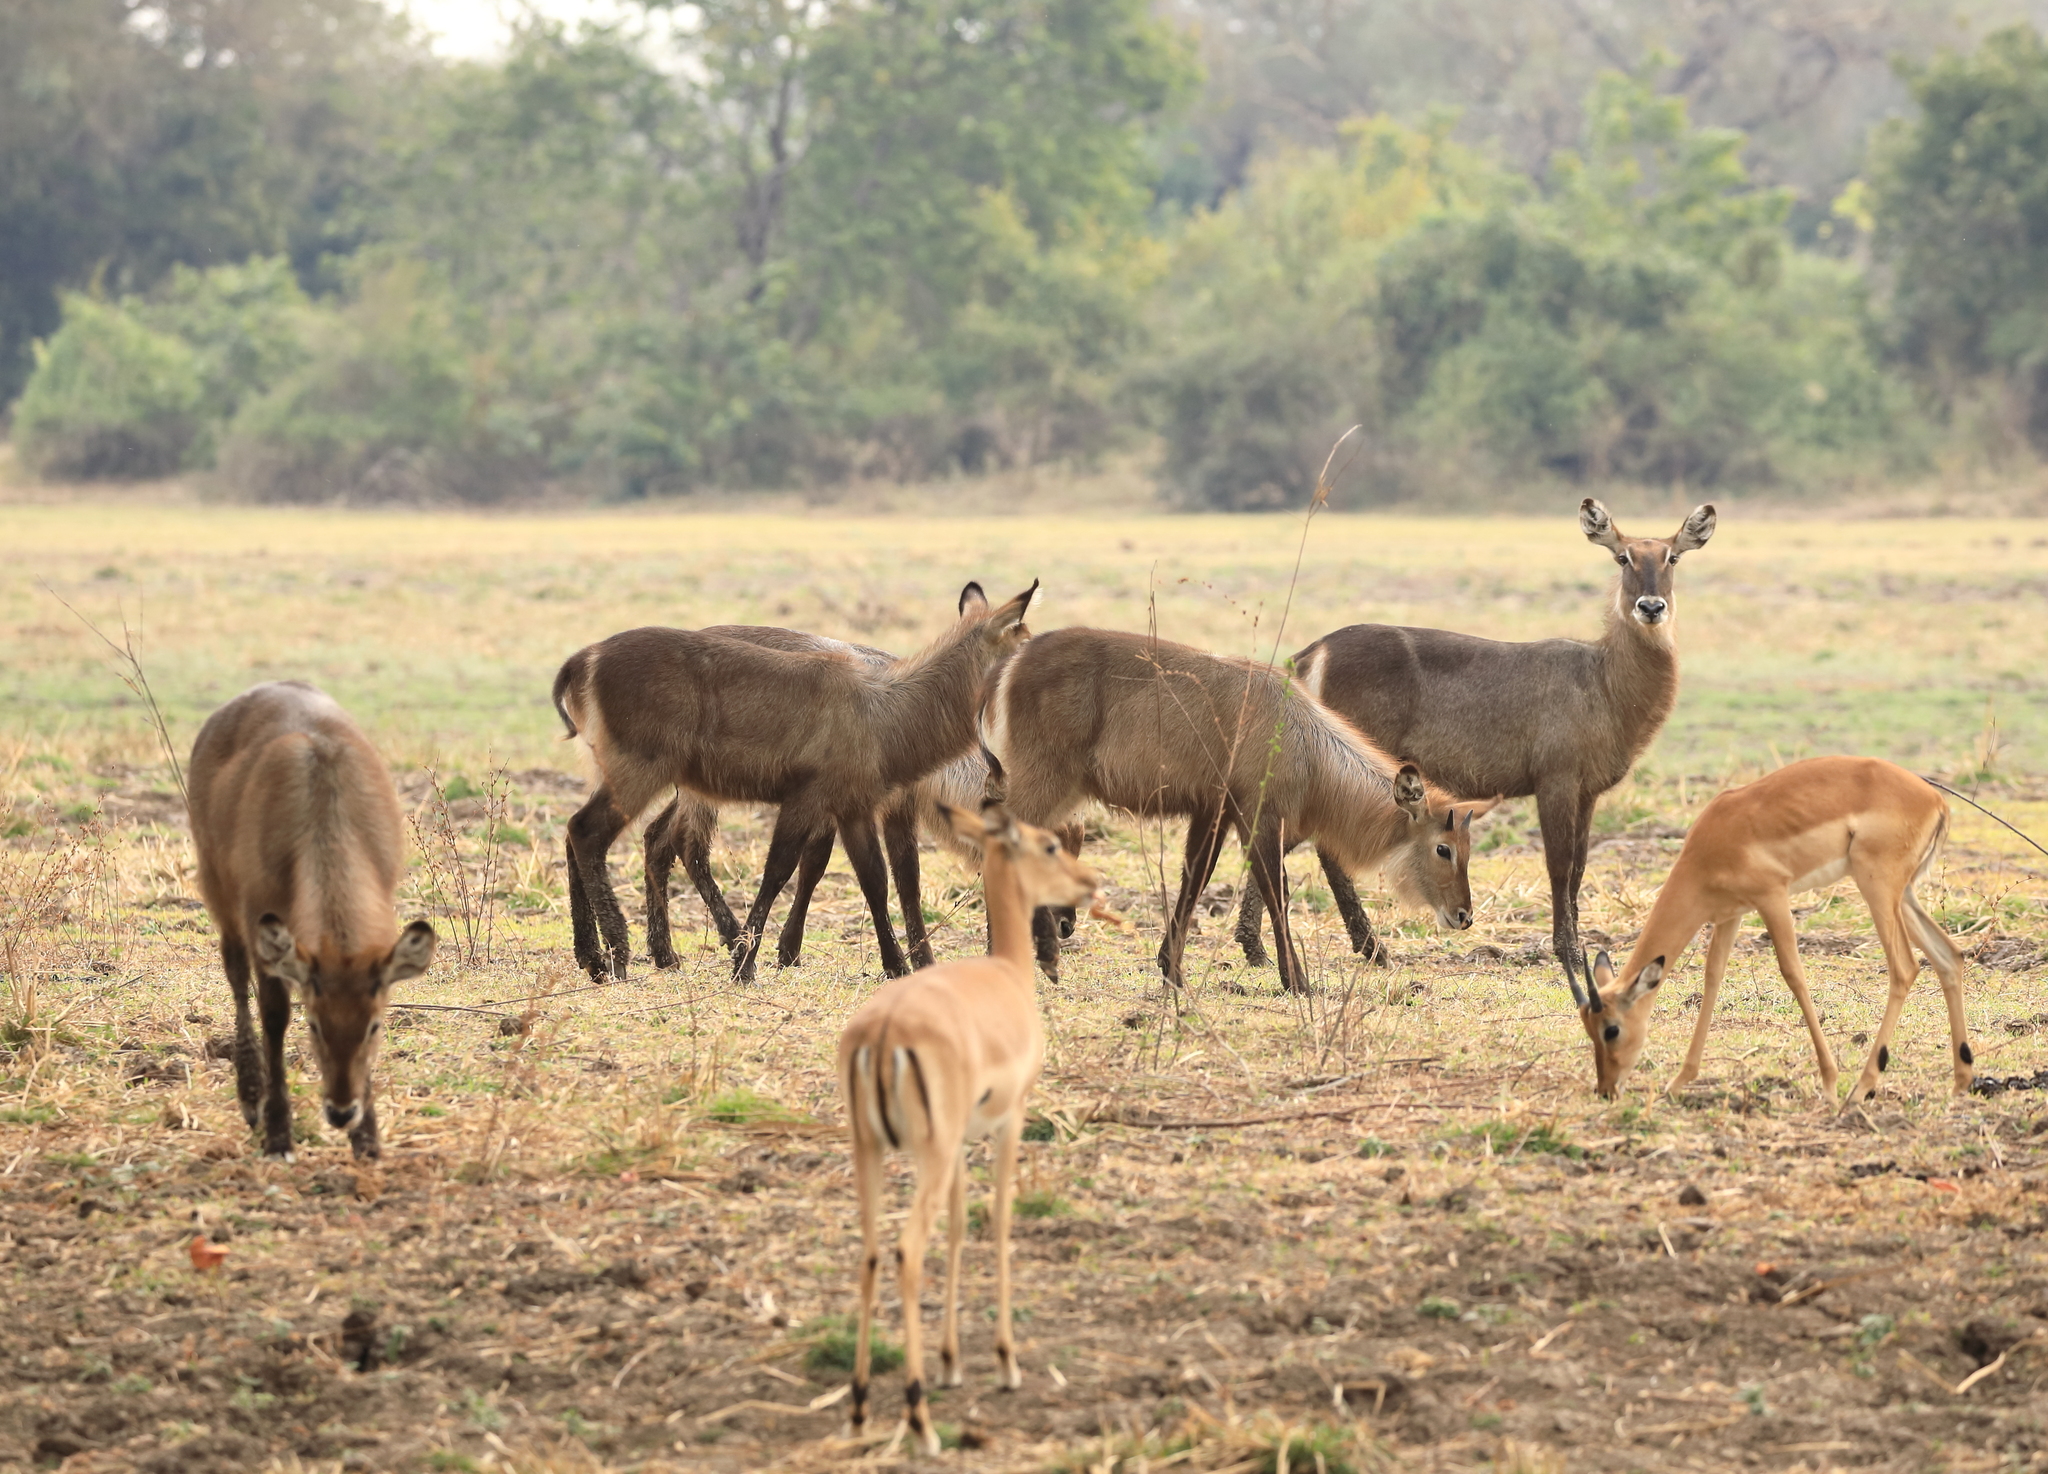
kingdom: Animalia
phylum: Chordata
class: Mammalia
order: Artiodactyla
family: Bovidae
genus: Kobus
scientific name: Kobus ellipsiprymnus
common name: Waterbuck
